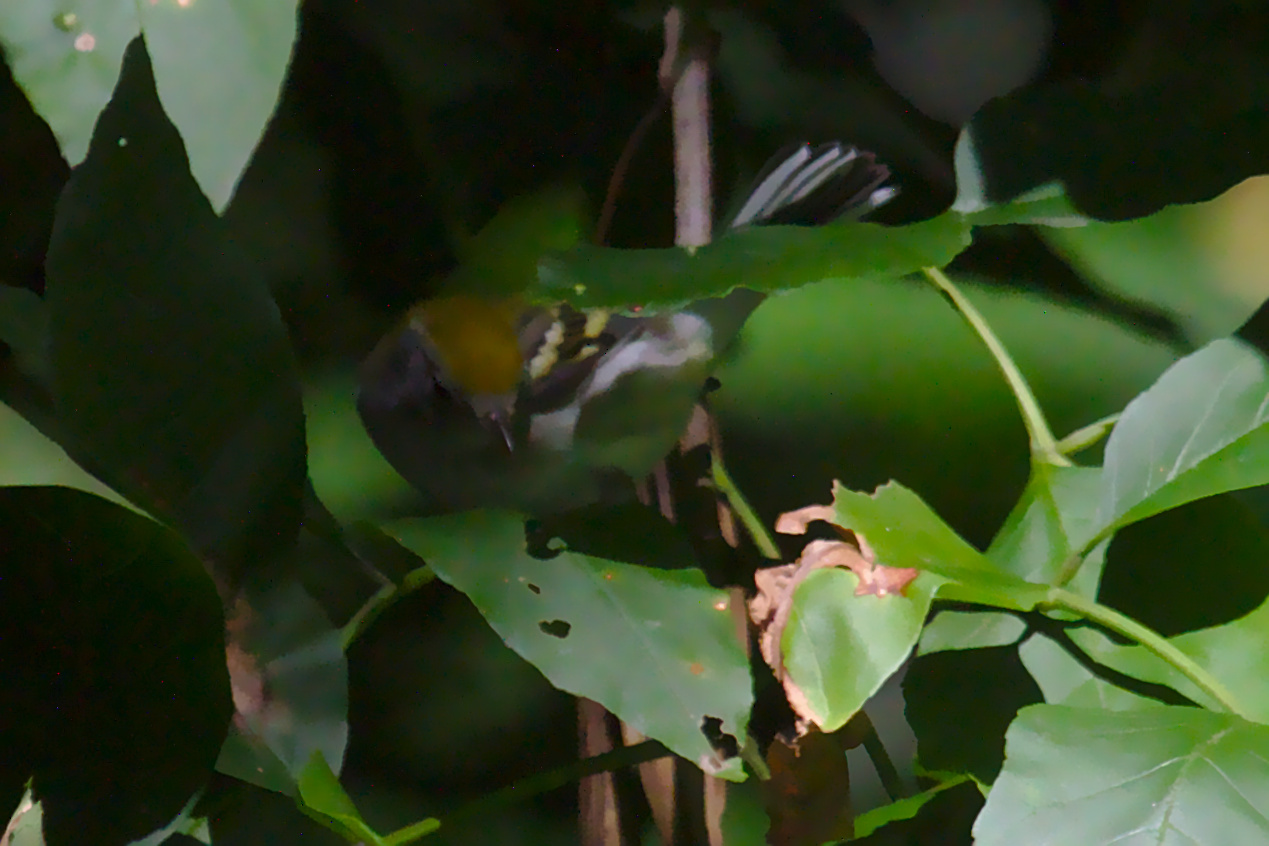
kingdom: Animalia
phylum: Chordata
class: Aves
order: Passeriformes
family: Parulidae
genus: Setophaga
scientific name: Setophaga pensylvanica
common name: Chestnut-sided warbler
